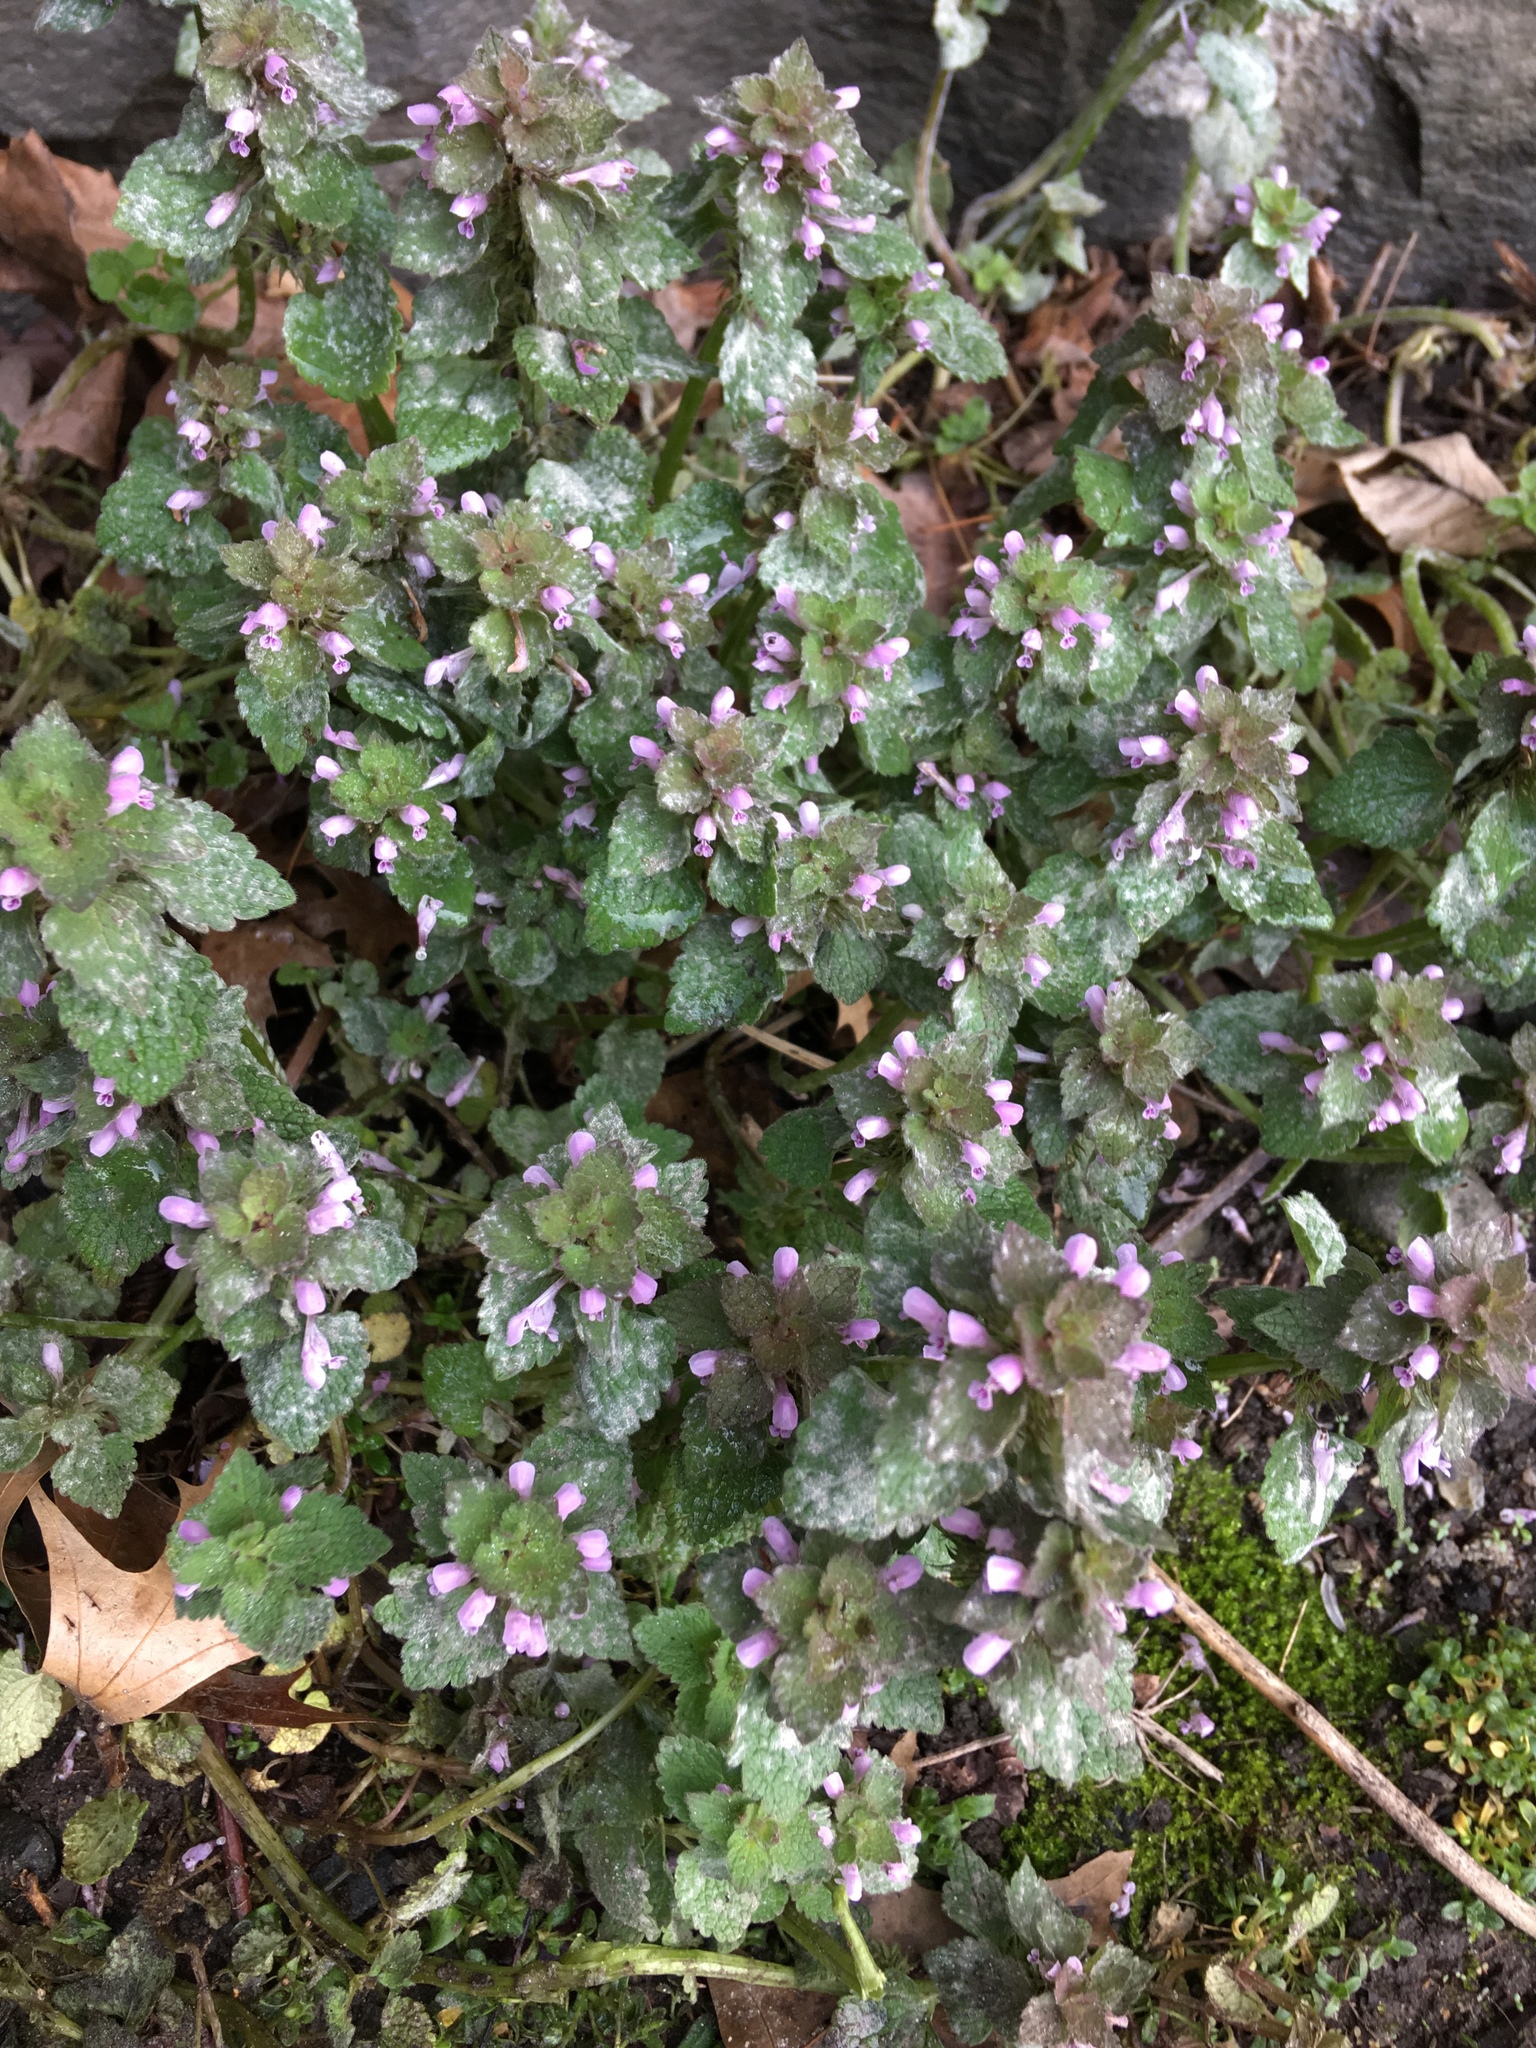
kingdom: Plantae
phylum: Tracheophyta
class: Magnoliopsida
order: Lamiales
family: Lamiaceae
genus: Lamium
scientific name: Lamium purpureum
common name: Red dead-nettle
